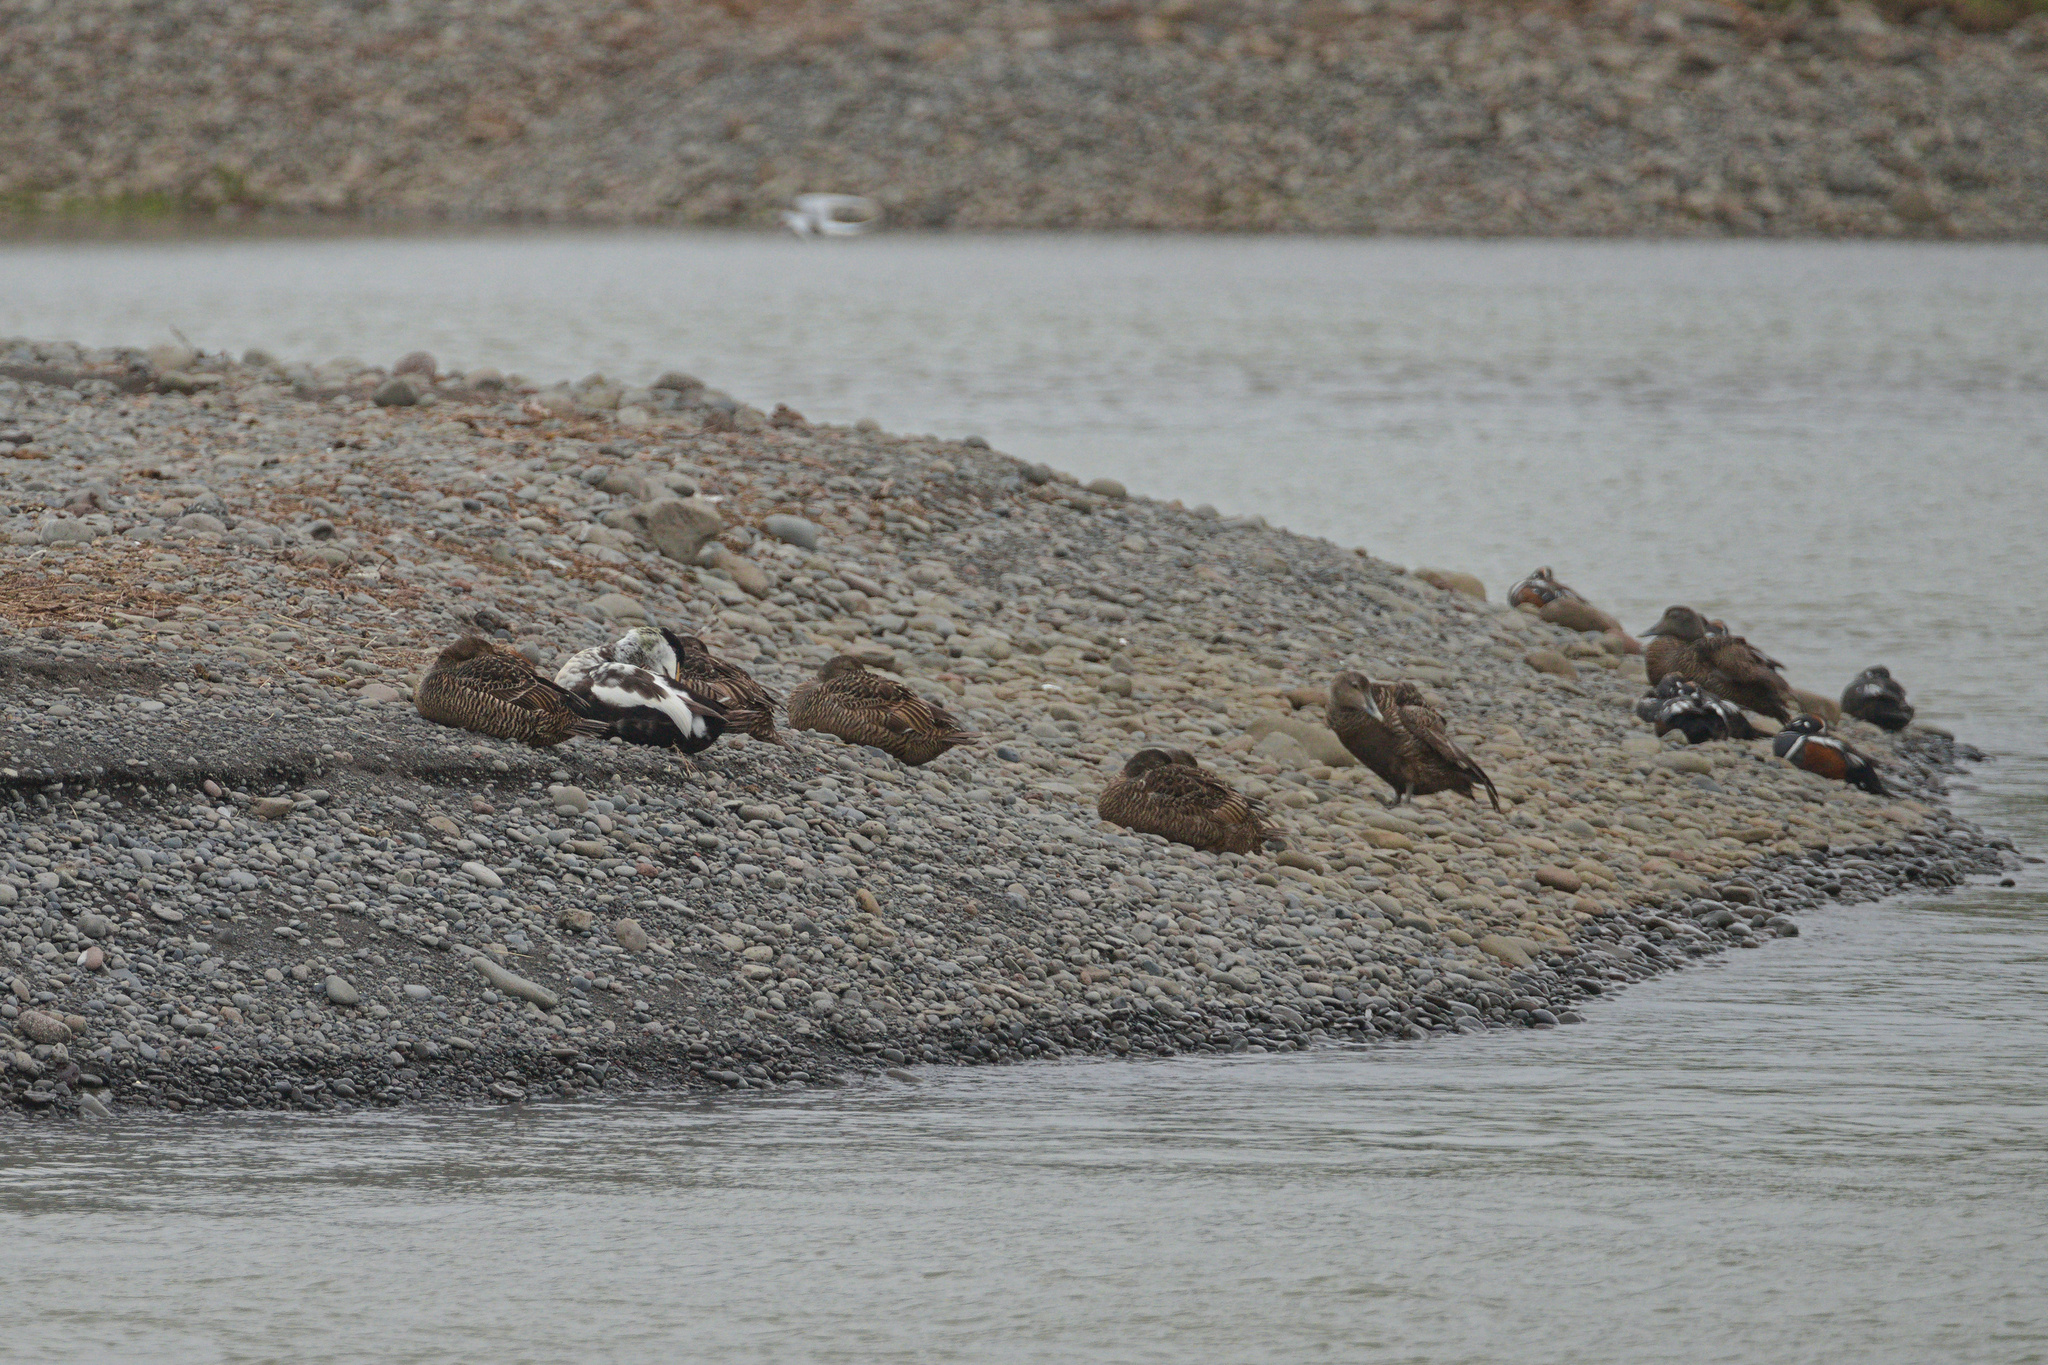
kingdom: Animalia
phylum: Chordata
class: Aves
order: Anseriformes
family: Anatidae
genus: Somateria
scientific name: Somateria mollissima
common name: Common eider
